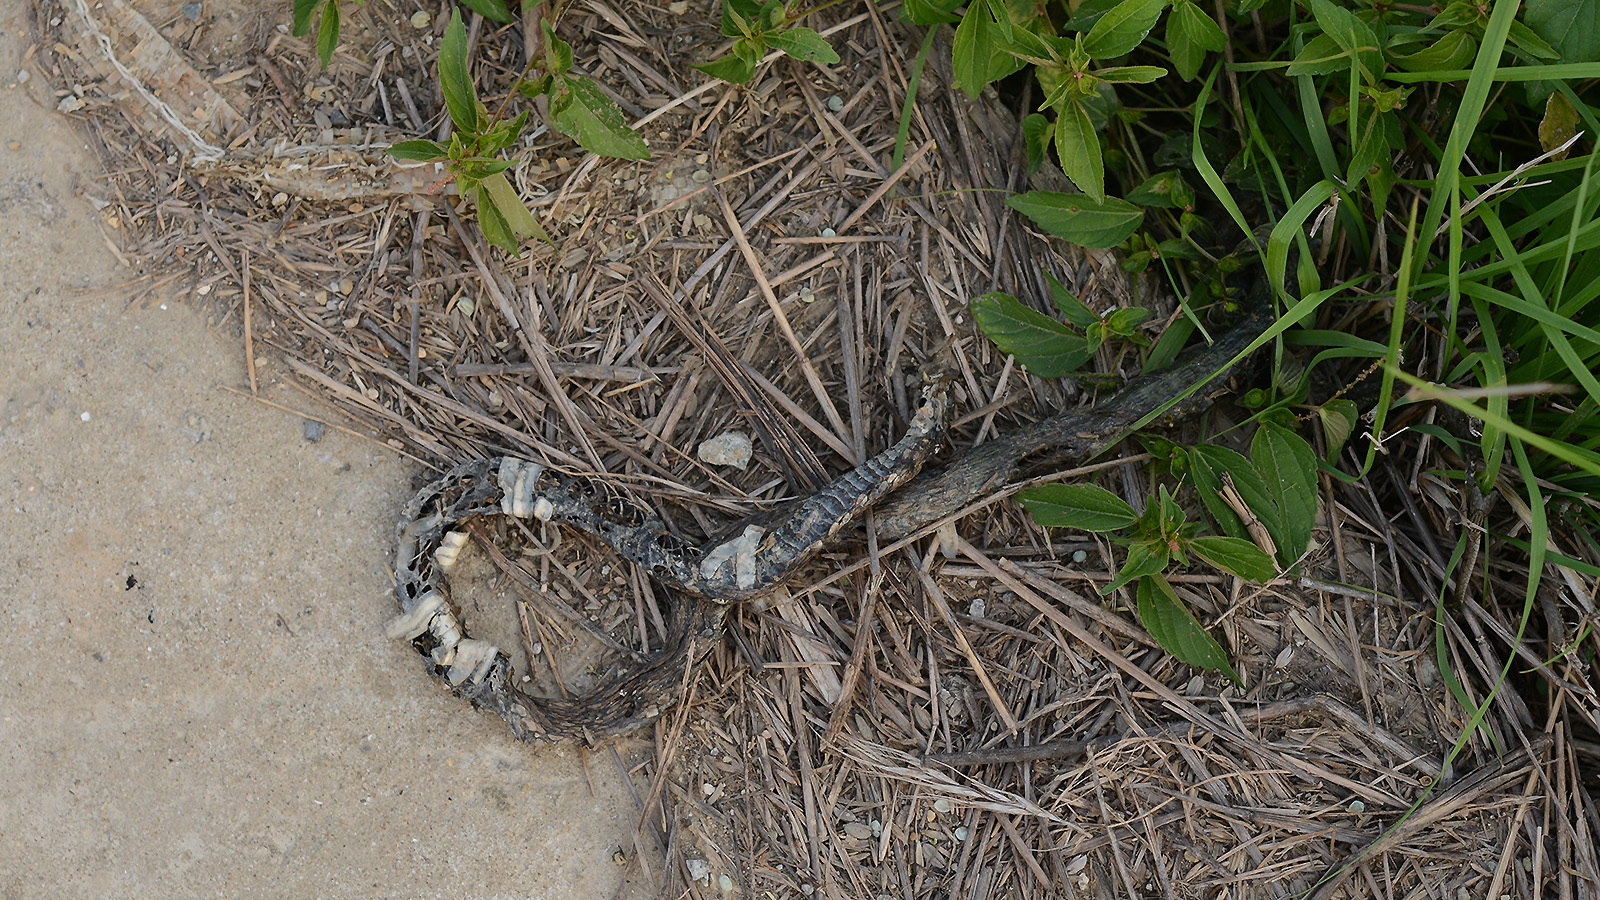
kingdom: Animalia
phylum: Chordata
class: Squamata
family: Colubridae
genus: Oocatochus
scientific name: Oocatochus rufodorsatus
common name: Frog-eating rat snake
